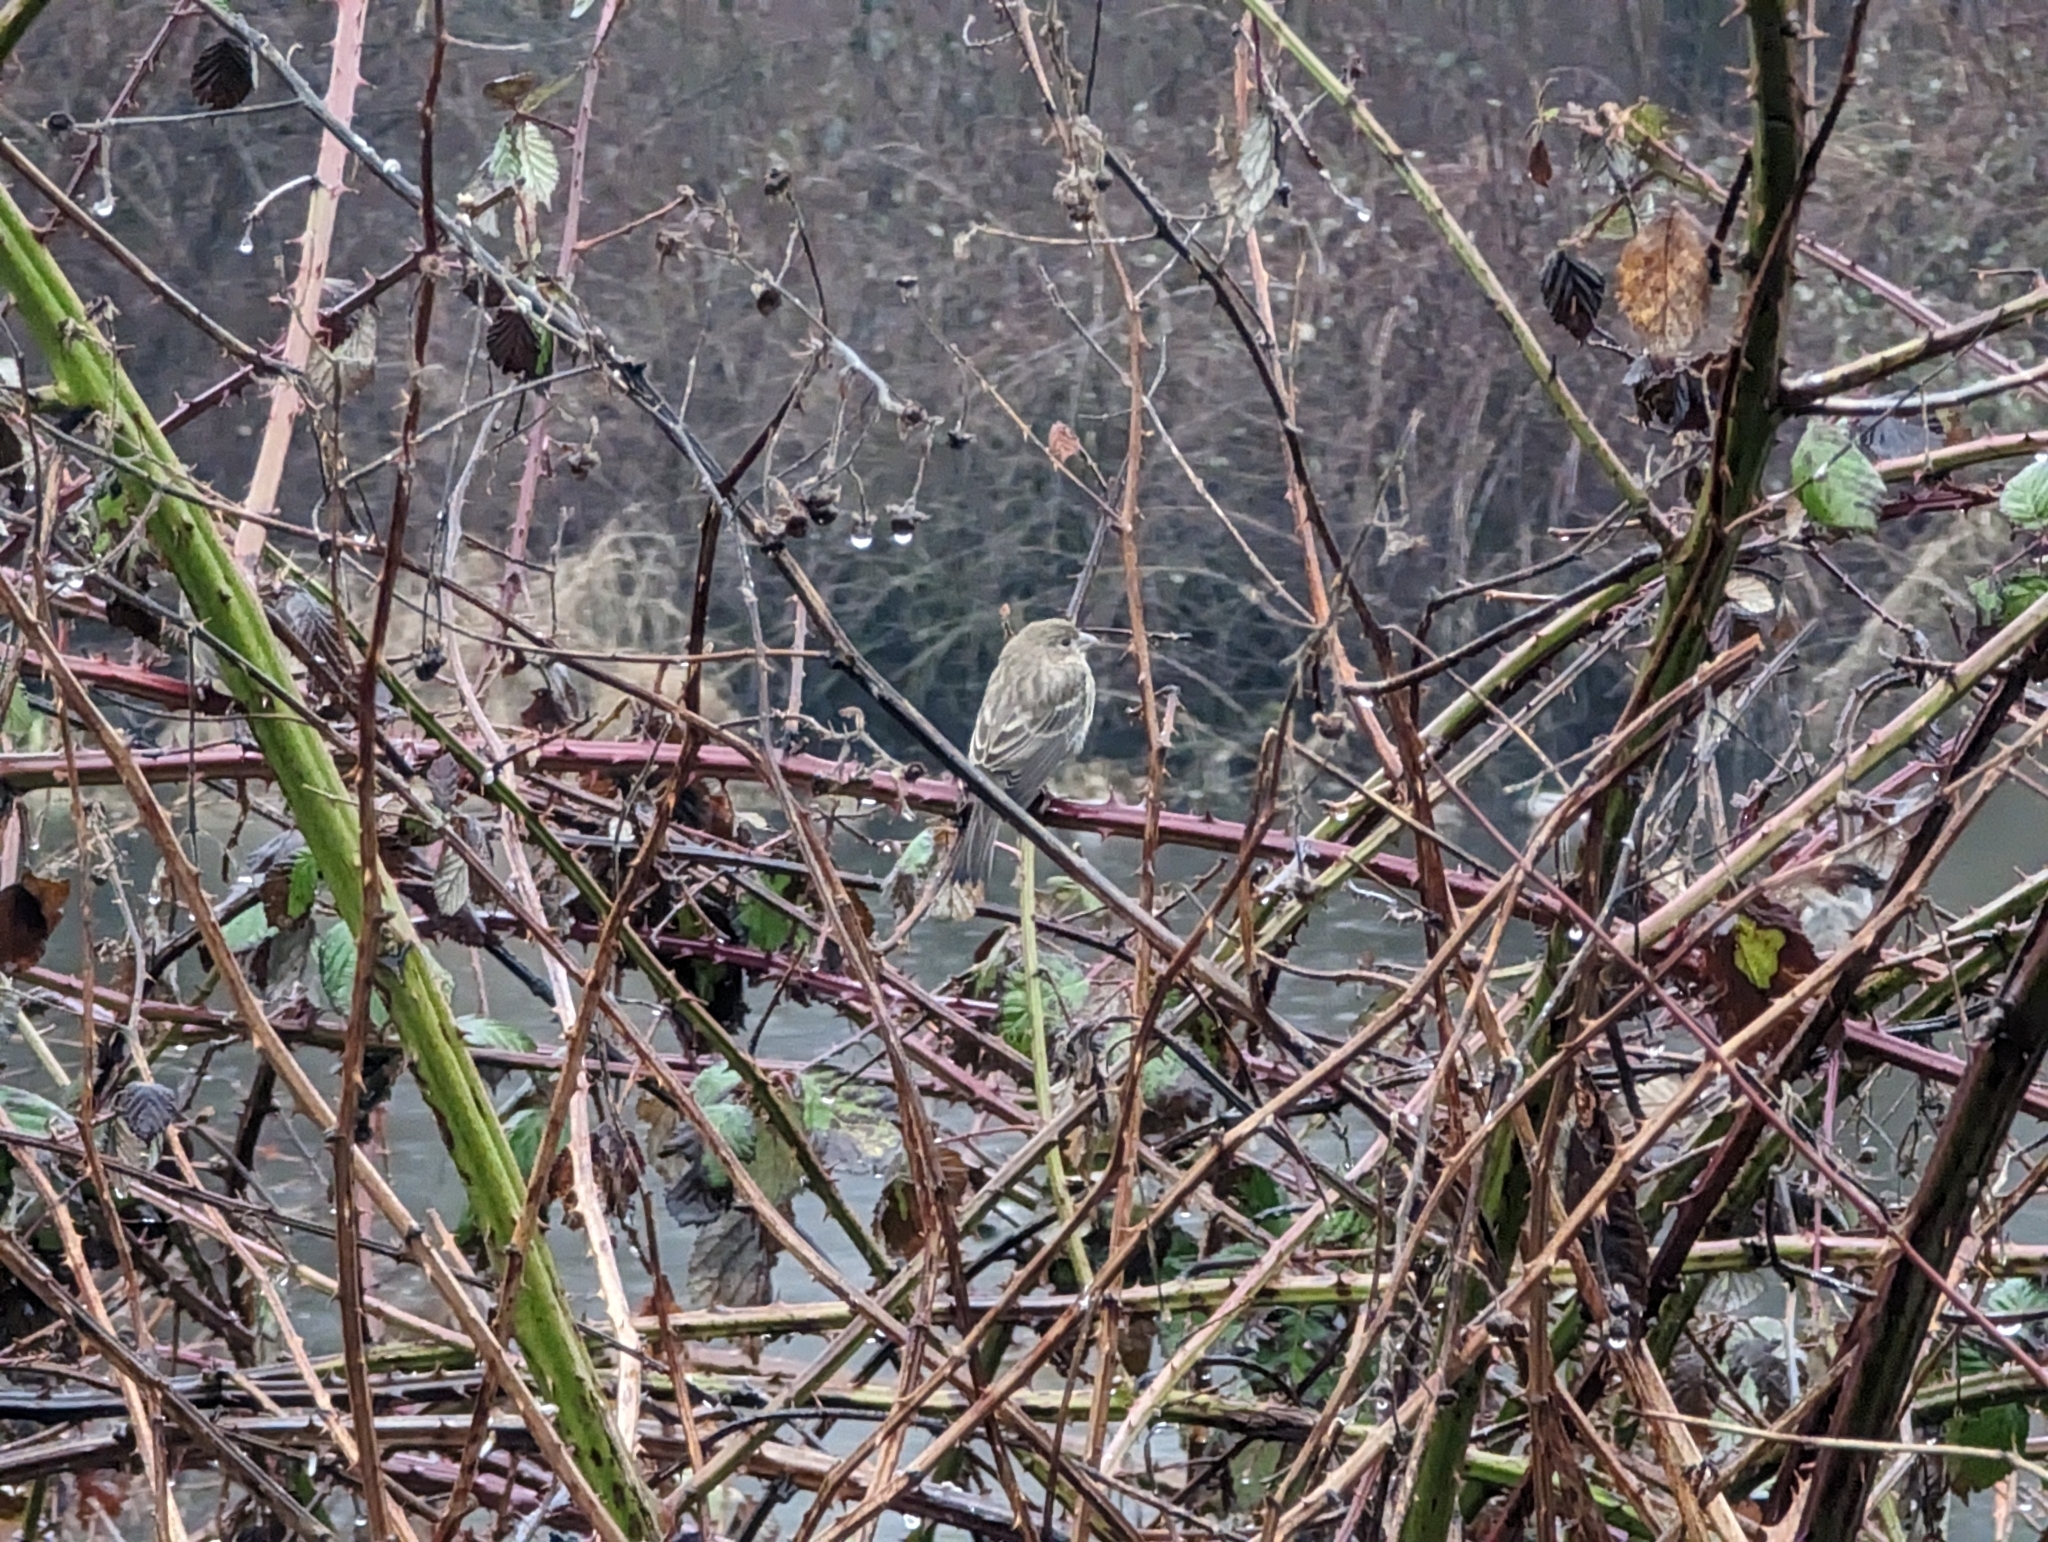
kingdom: Animalia
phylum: Chordata
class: Aves
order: Passeriformes
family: Fringillidae
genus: Haemorhous
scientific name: Haemorhous mexicanus
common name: House finch
